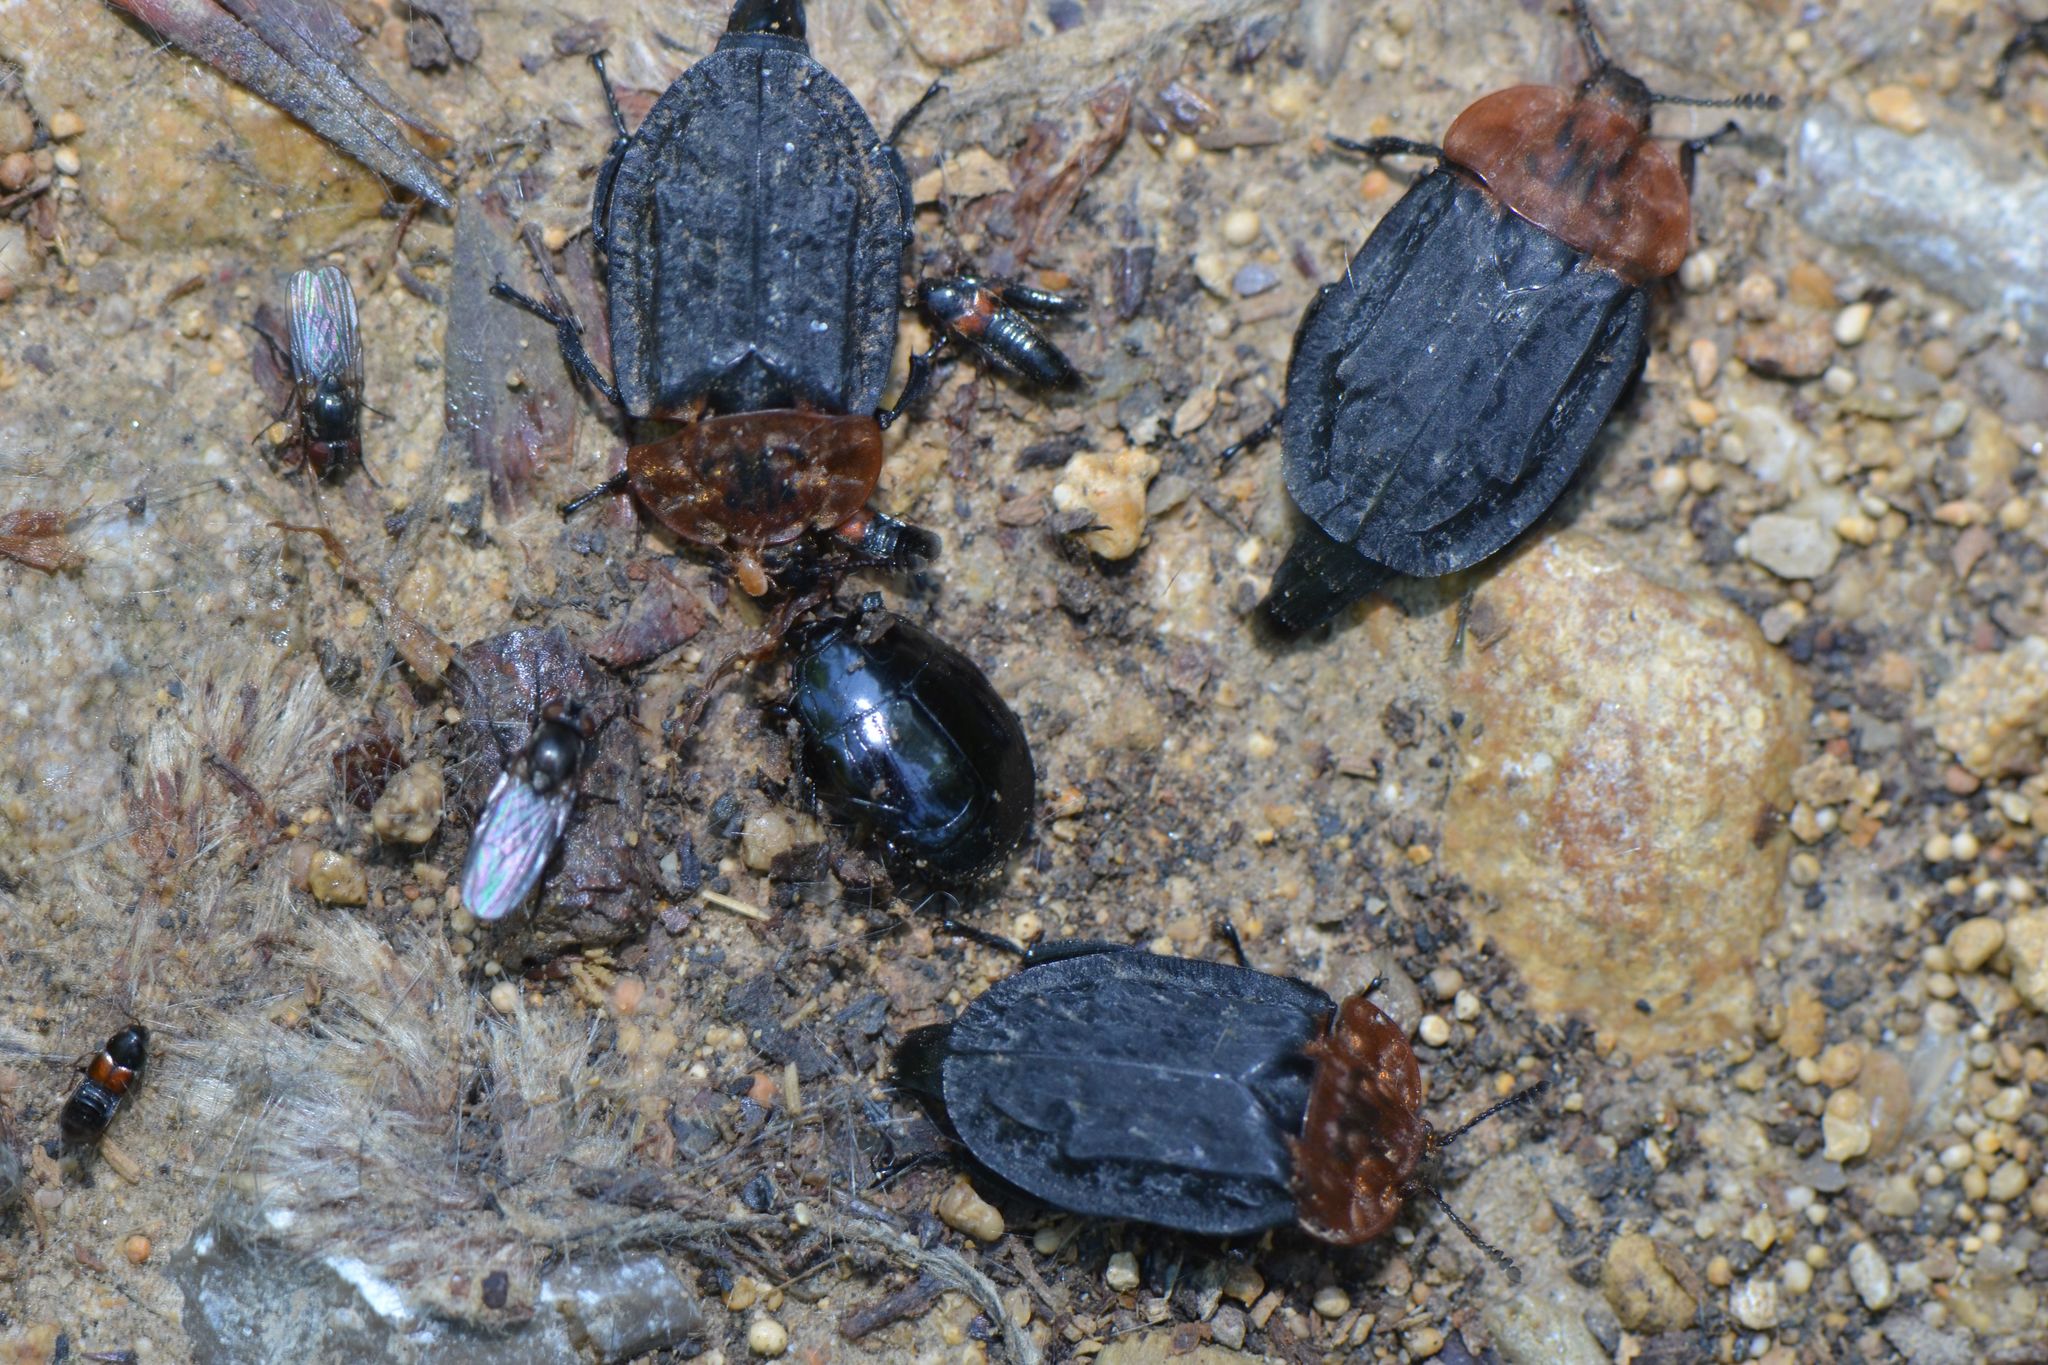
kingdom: Animalia
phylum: Arthropoda
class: Insecta
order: Coleoptera
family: Staphylinidae
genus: Oiceoptoma
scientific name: Oiceoptoma thoracicum
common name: Red-breasted carrion beetle
